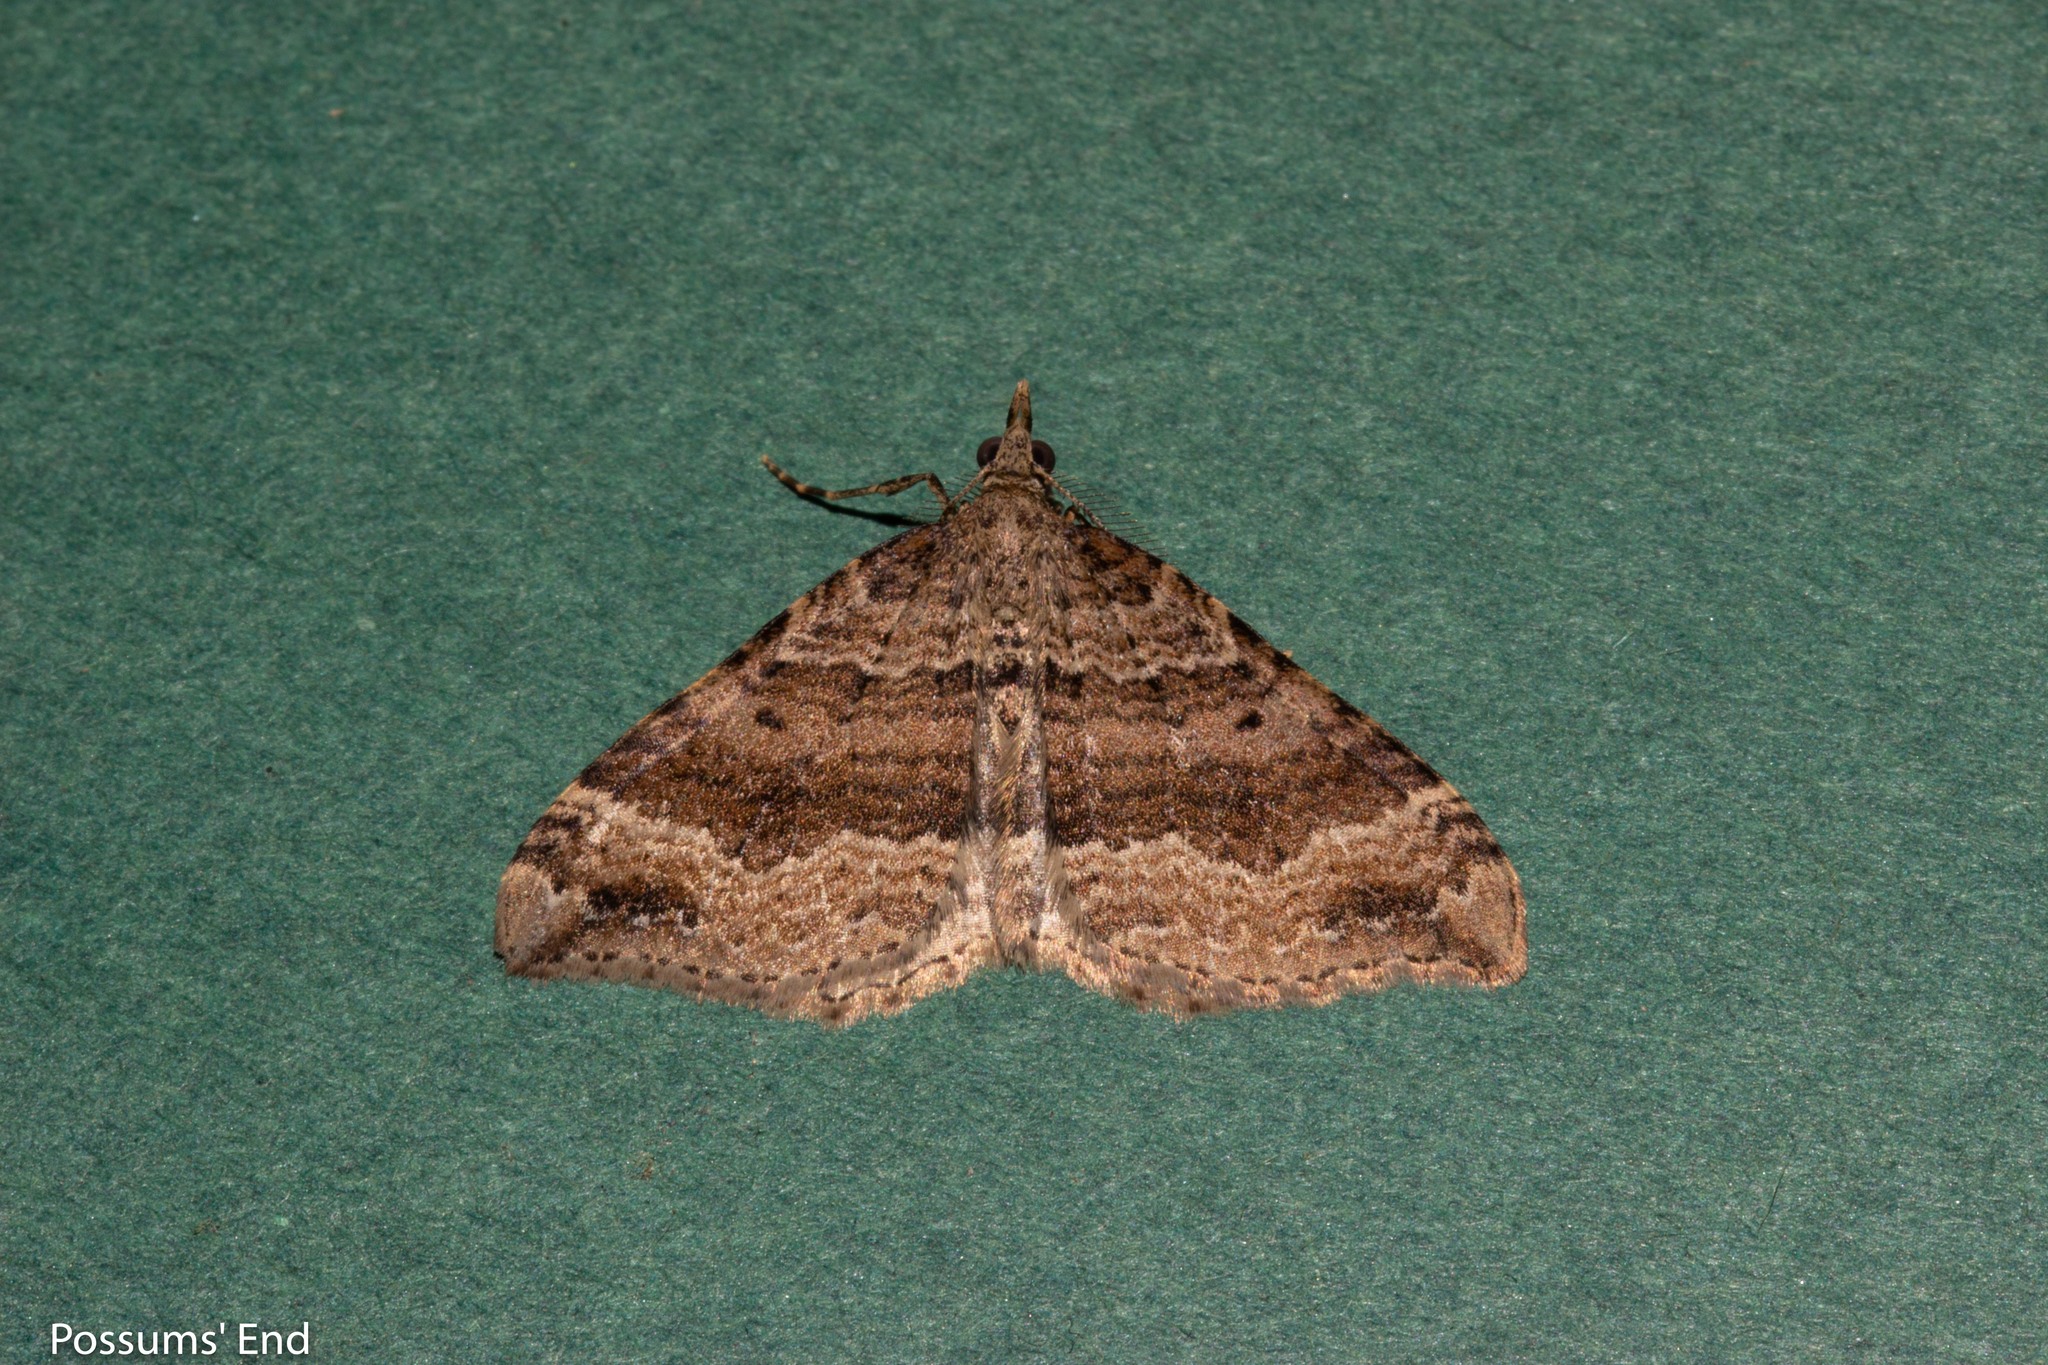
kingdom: Animalia
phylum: Arthropoda
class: Insecta
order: Lepidoptera
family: Geometridae
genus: Homodotis
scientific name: Homodotis falcata
